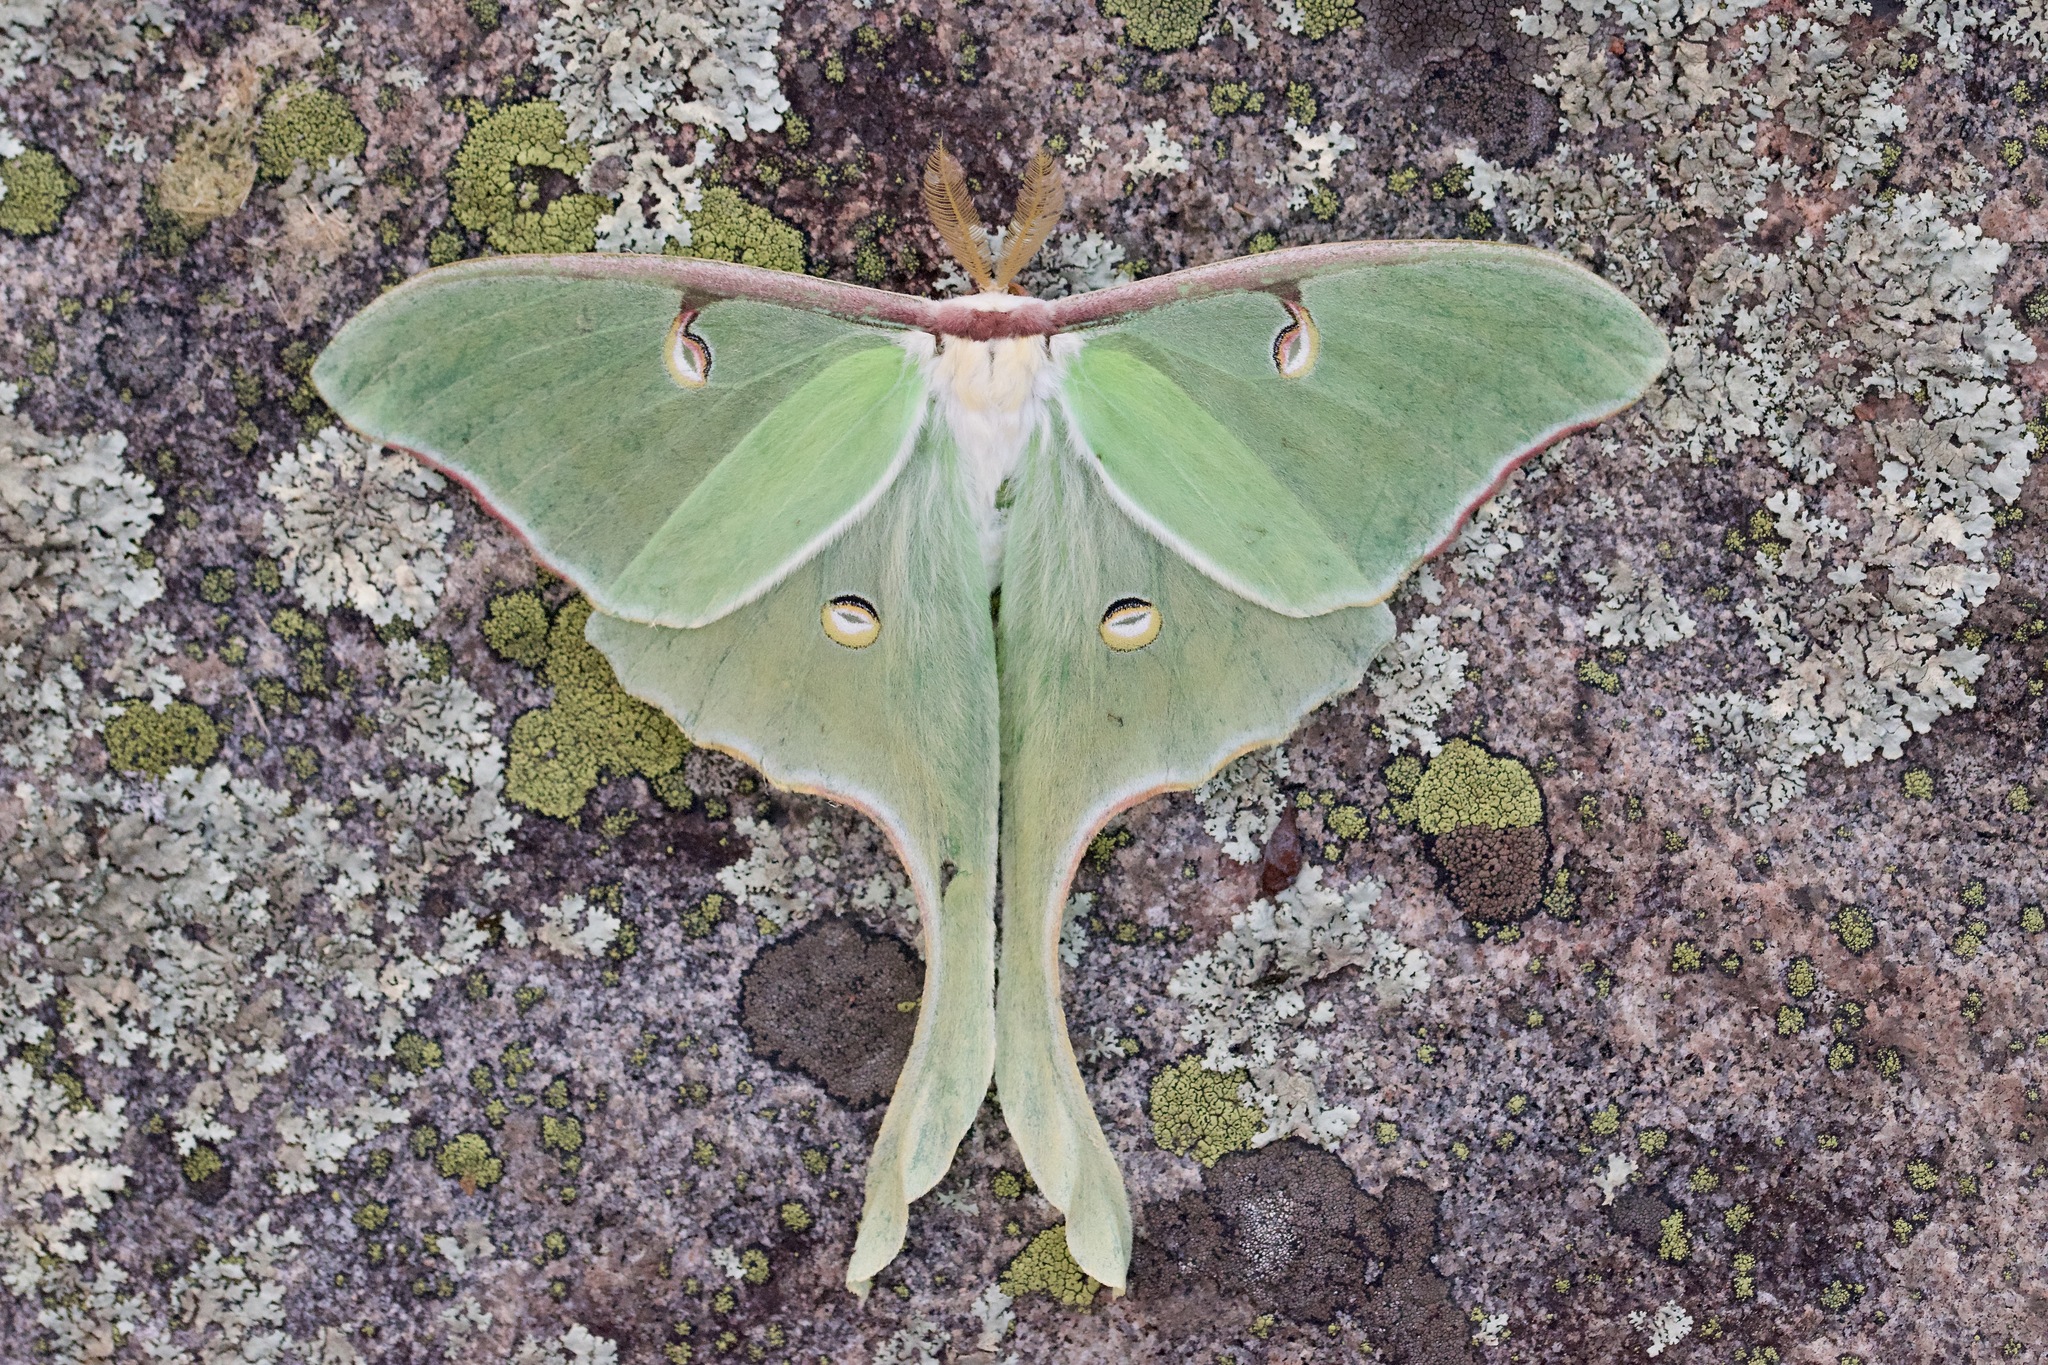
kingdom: Animalia
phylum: Arthropoda
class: Insecta
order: Lepidoptera
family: Saturniidae
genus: Actias
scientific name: Actias luna
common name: Luna moth
